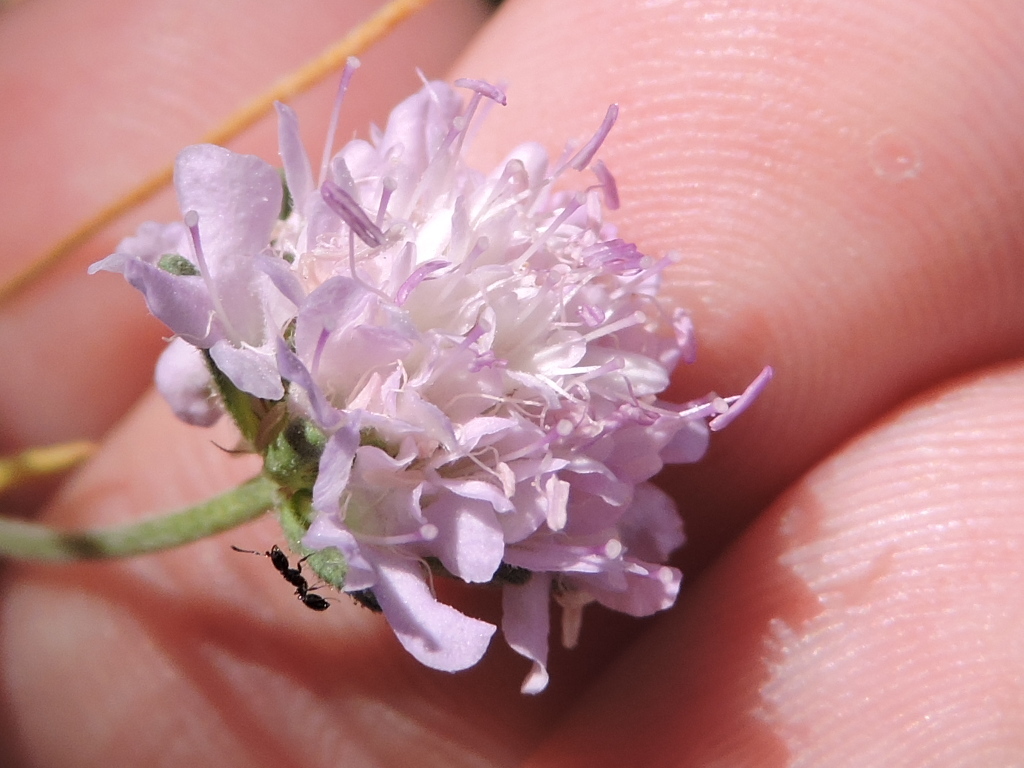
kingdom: Plantae
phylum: Tracheophyta
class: Magnoliopsida
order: Dipsacales
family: Caprifoliaceae
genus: Sixalix
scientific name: Sixalix atropurpurea
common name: Sweet scabious
